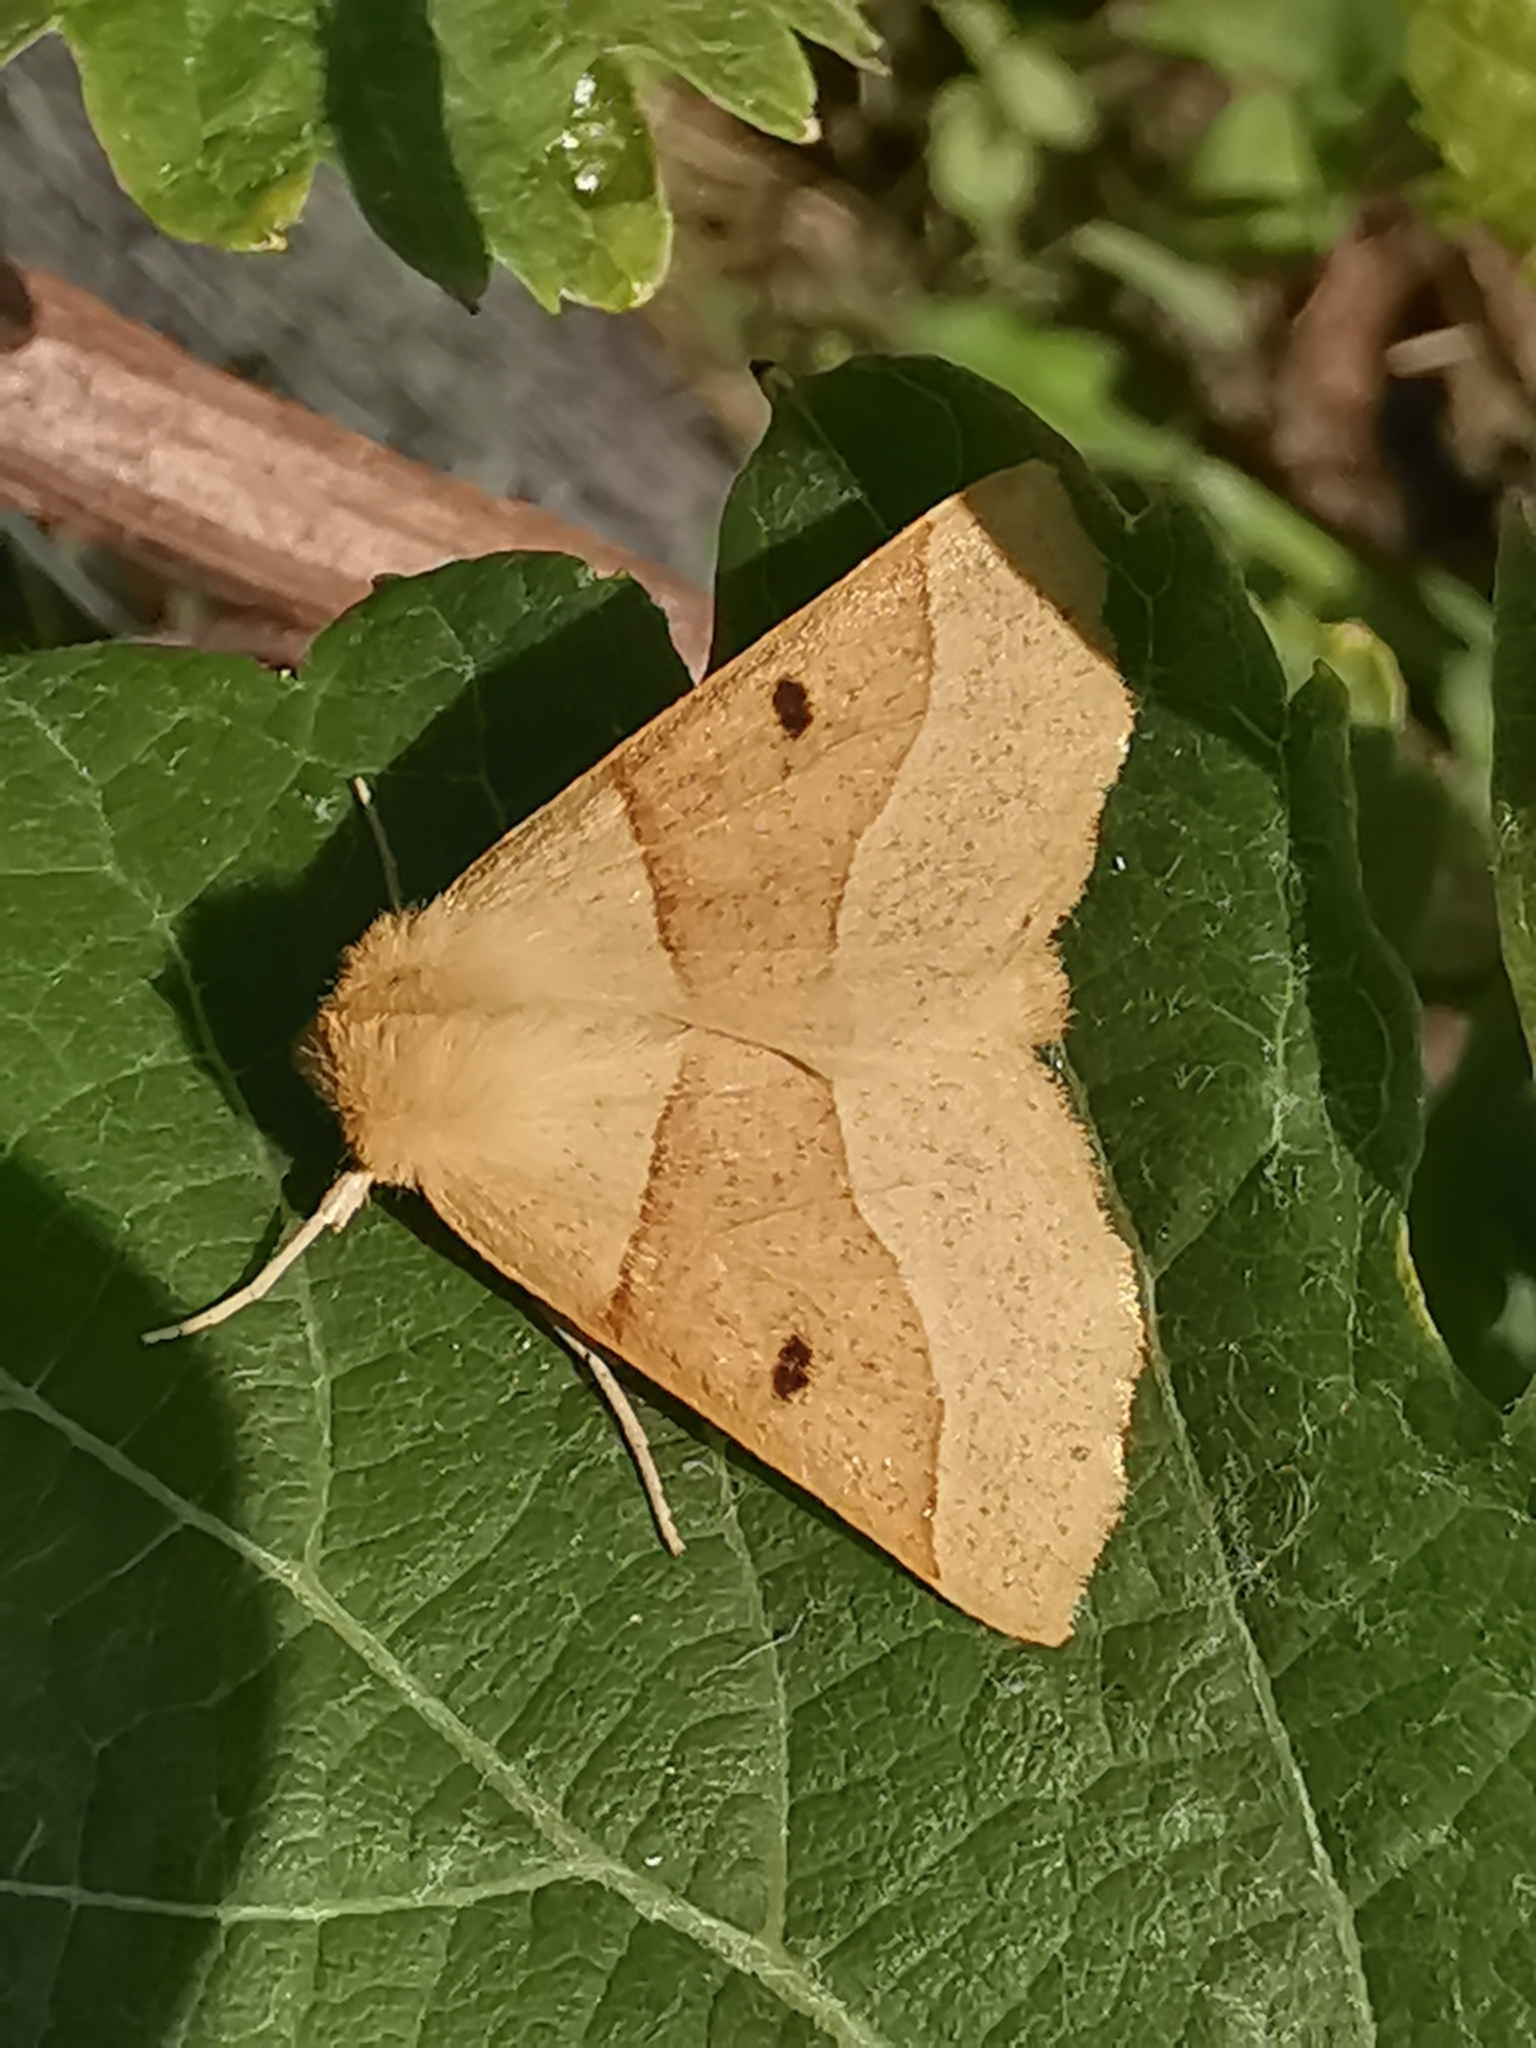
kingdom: Animalia
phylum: Arthropoda
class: Insecta
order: Lepidoptera
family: Geometridae
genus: Crocallis
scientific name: Crocallis elinguaria
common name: Scalloped oak
